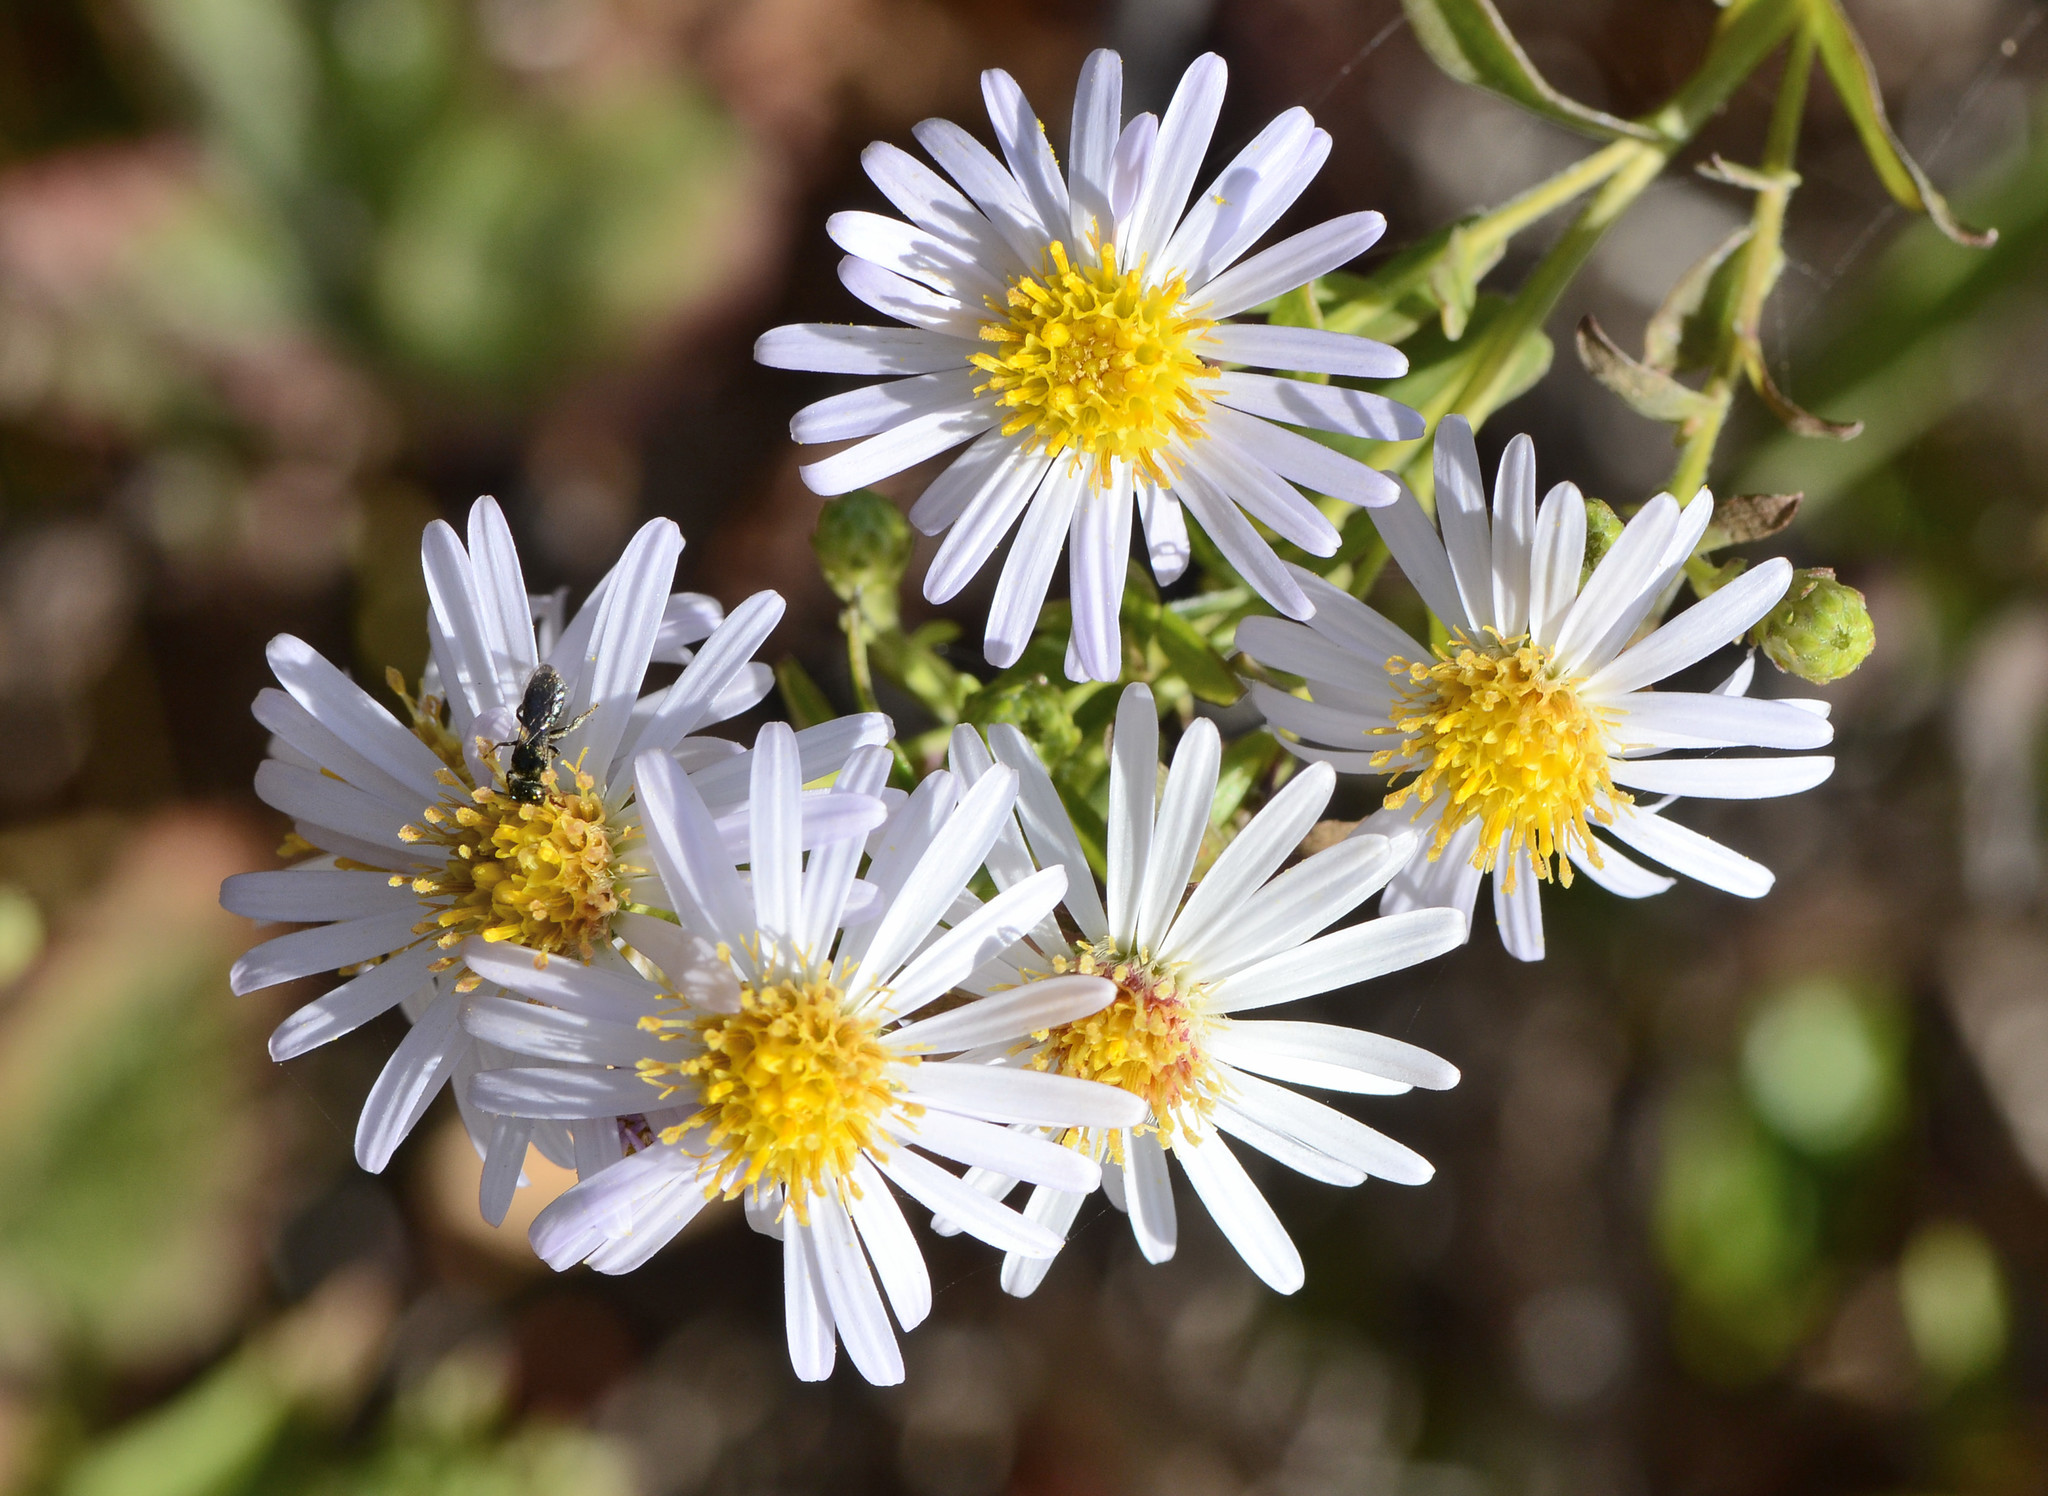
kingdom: Plantae
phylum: Tracheophyta
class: Magnoliopsida
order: Asterales
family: Asteraceae
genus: Symphyotrichum
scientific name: Symphyotrichum chilense
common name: Pacific aster
